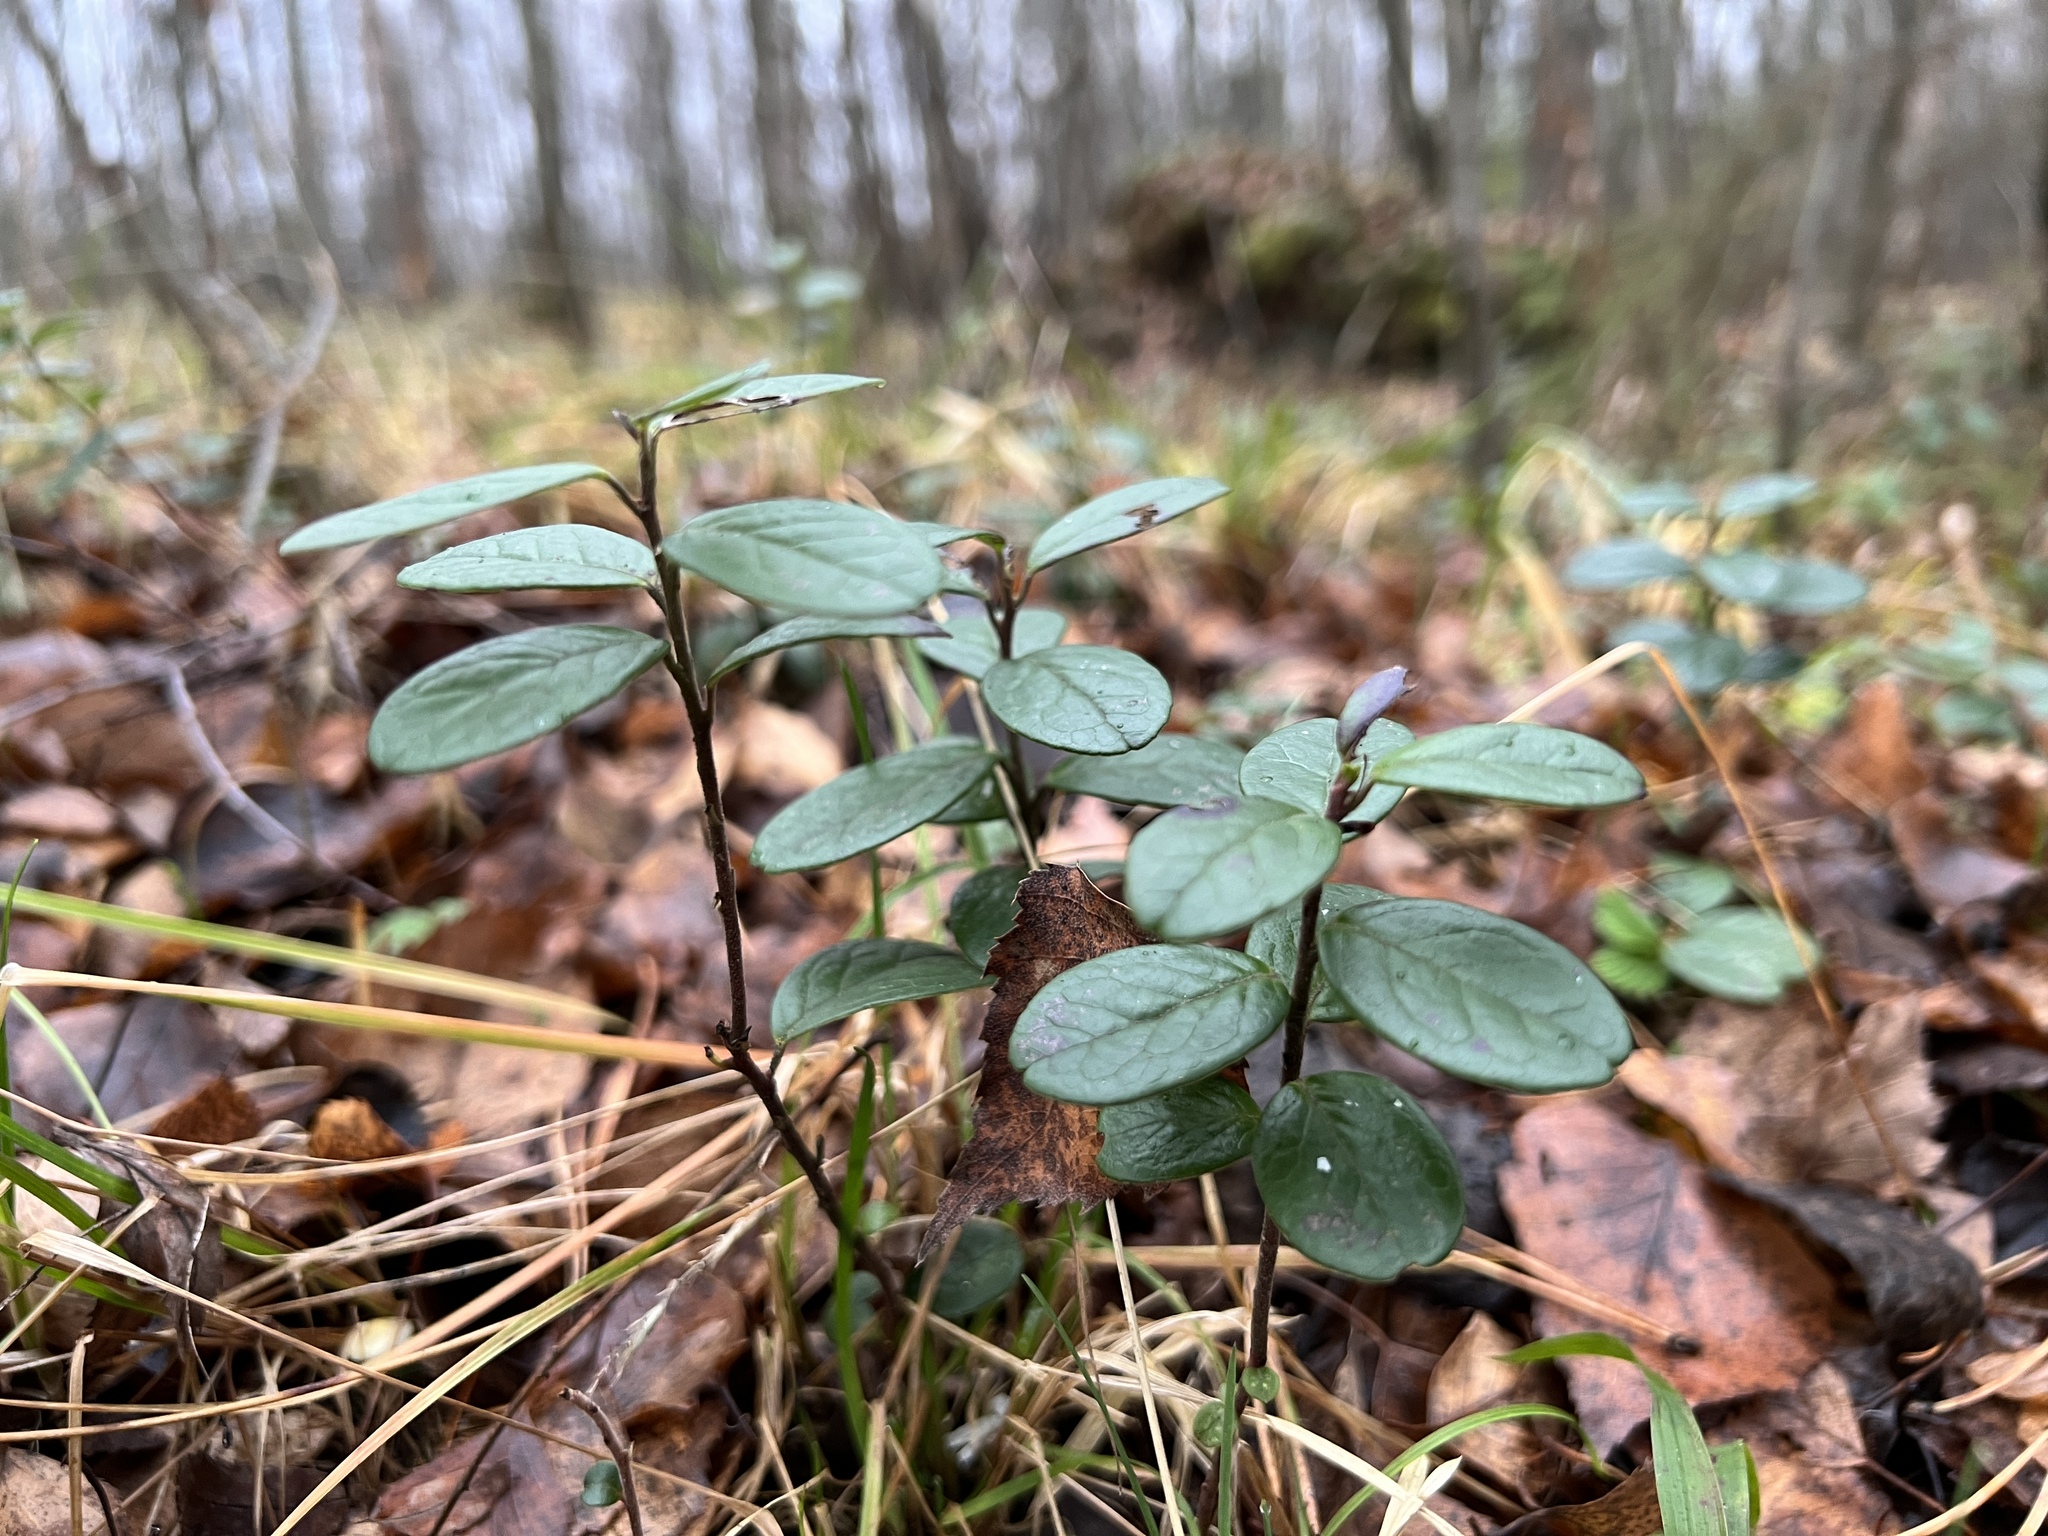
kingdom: Plantae
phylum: Tracheophyta
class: Magnoliopsida
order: Ericales
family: Ericaceae
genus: Vaccinium
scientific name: Vaccinium vitis-idaea
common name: Cowberry
